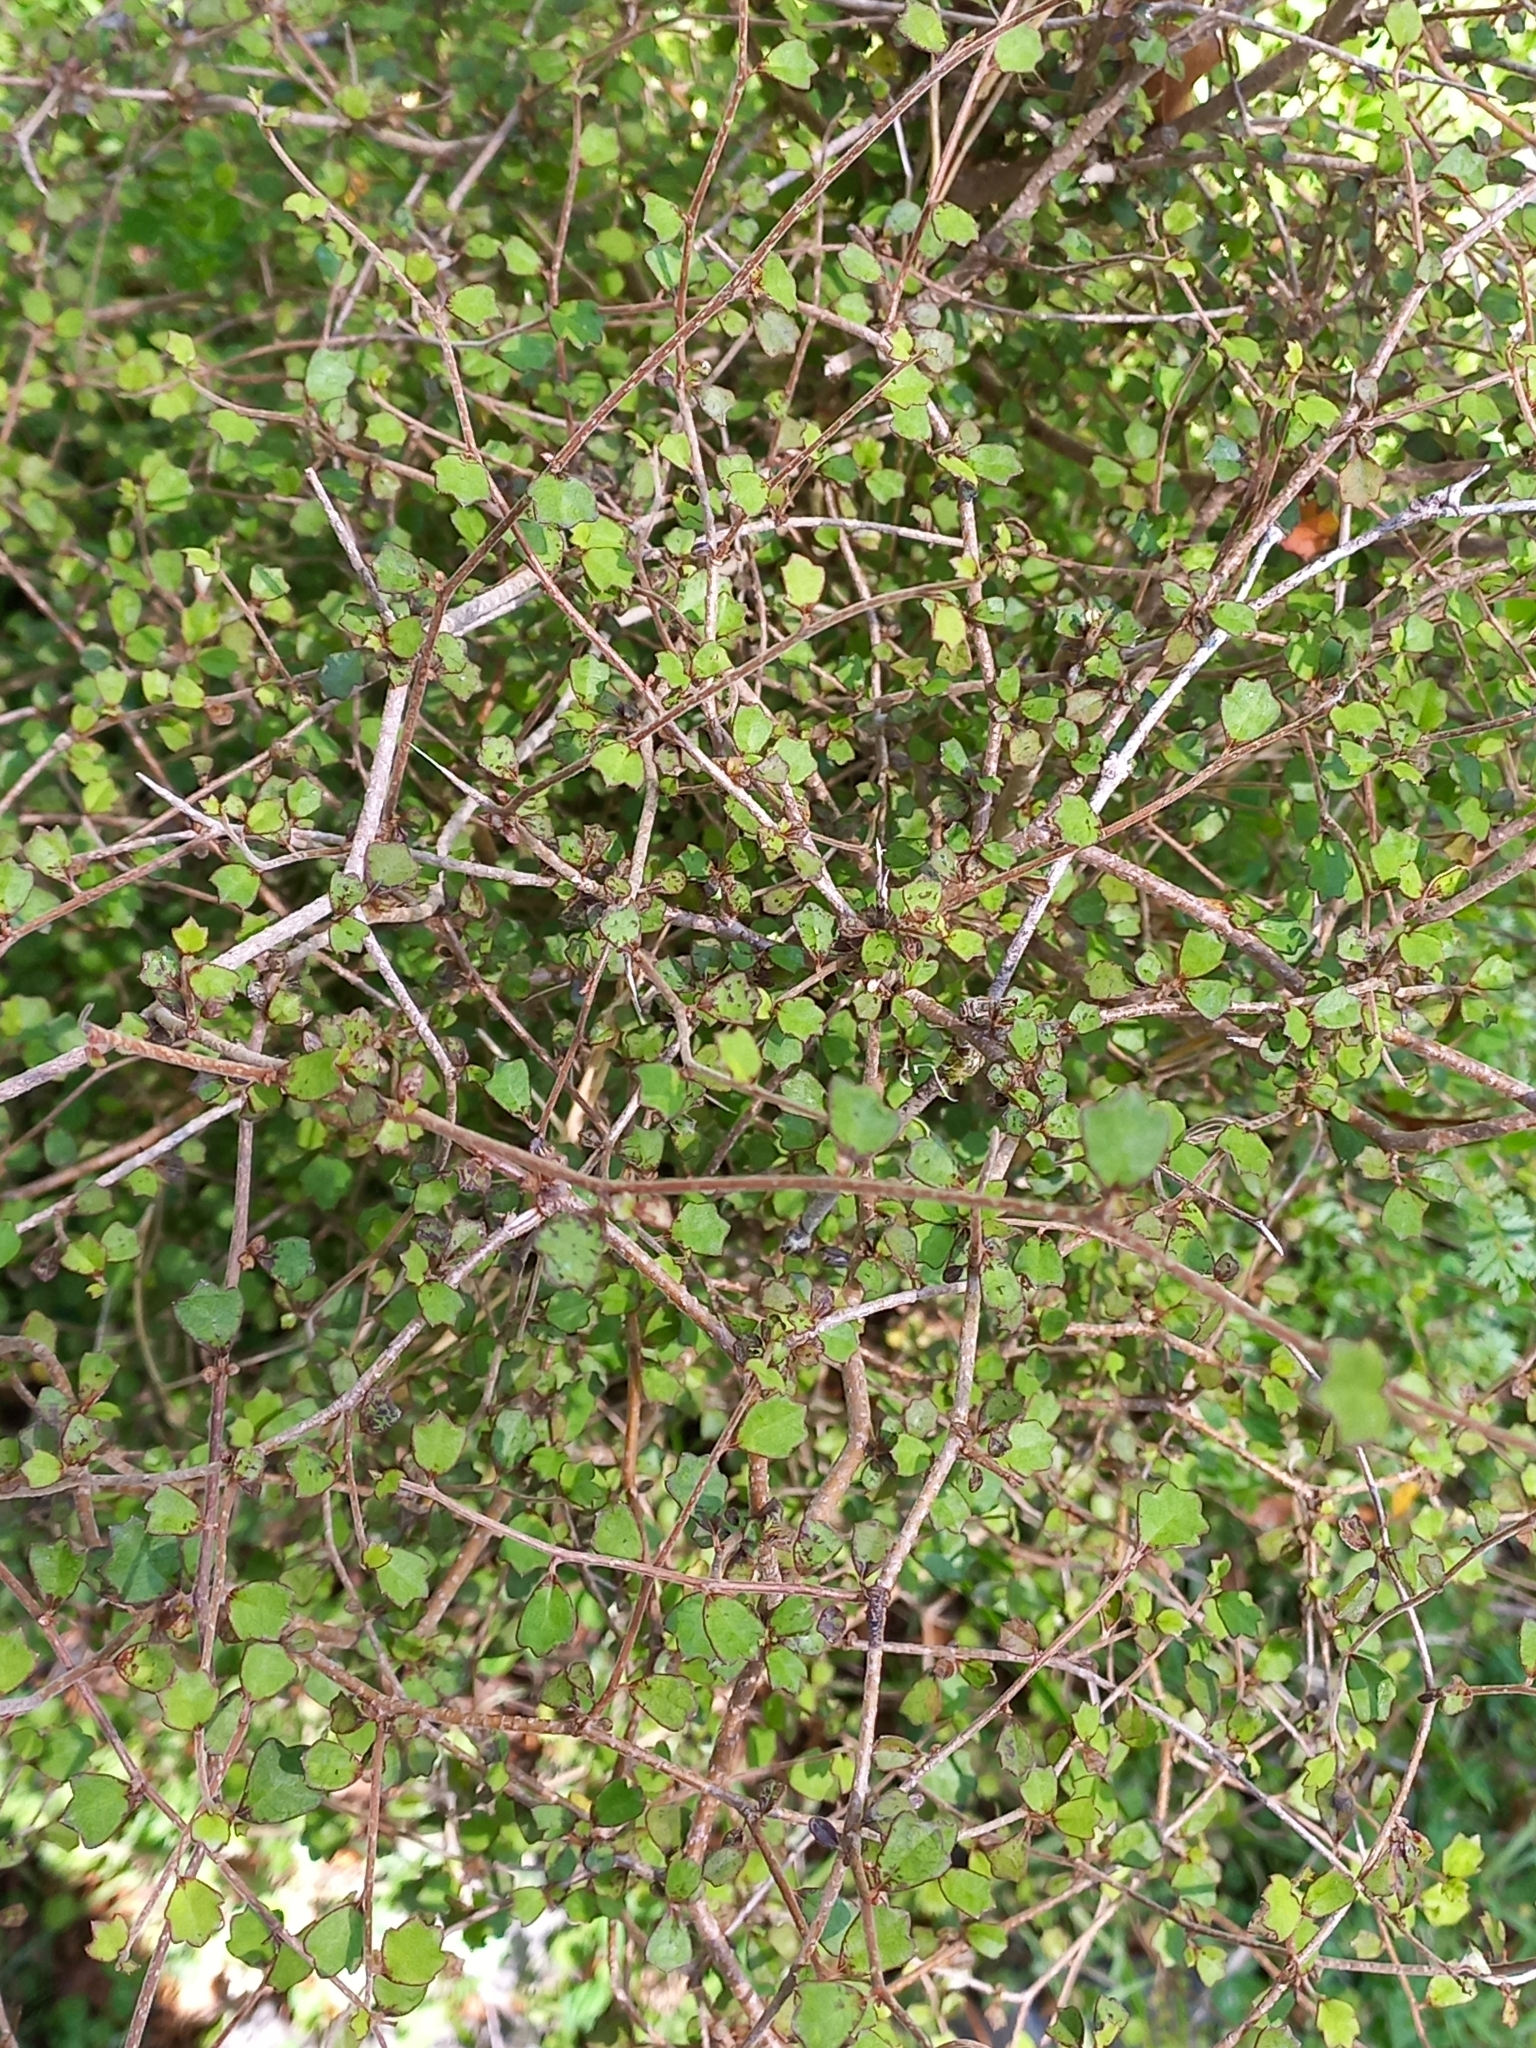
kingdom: Plantae
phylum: Tracheophyta
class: Magnoliopsida
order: Apiales
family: Pennantiaceae
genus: Pennantia
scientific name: Pennantia corymbosa
